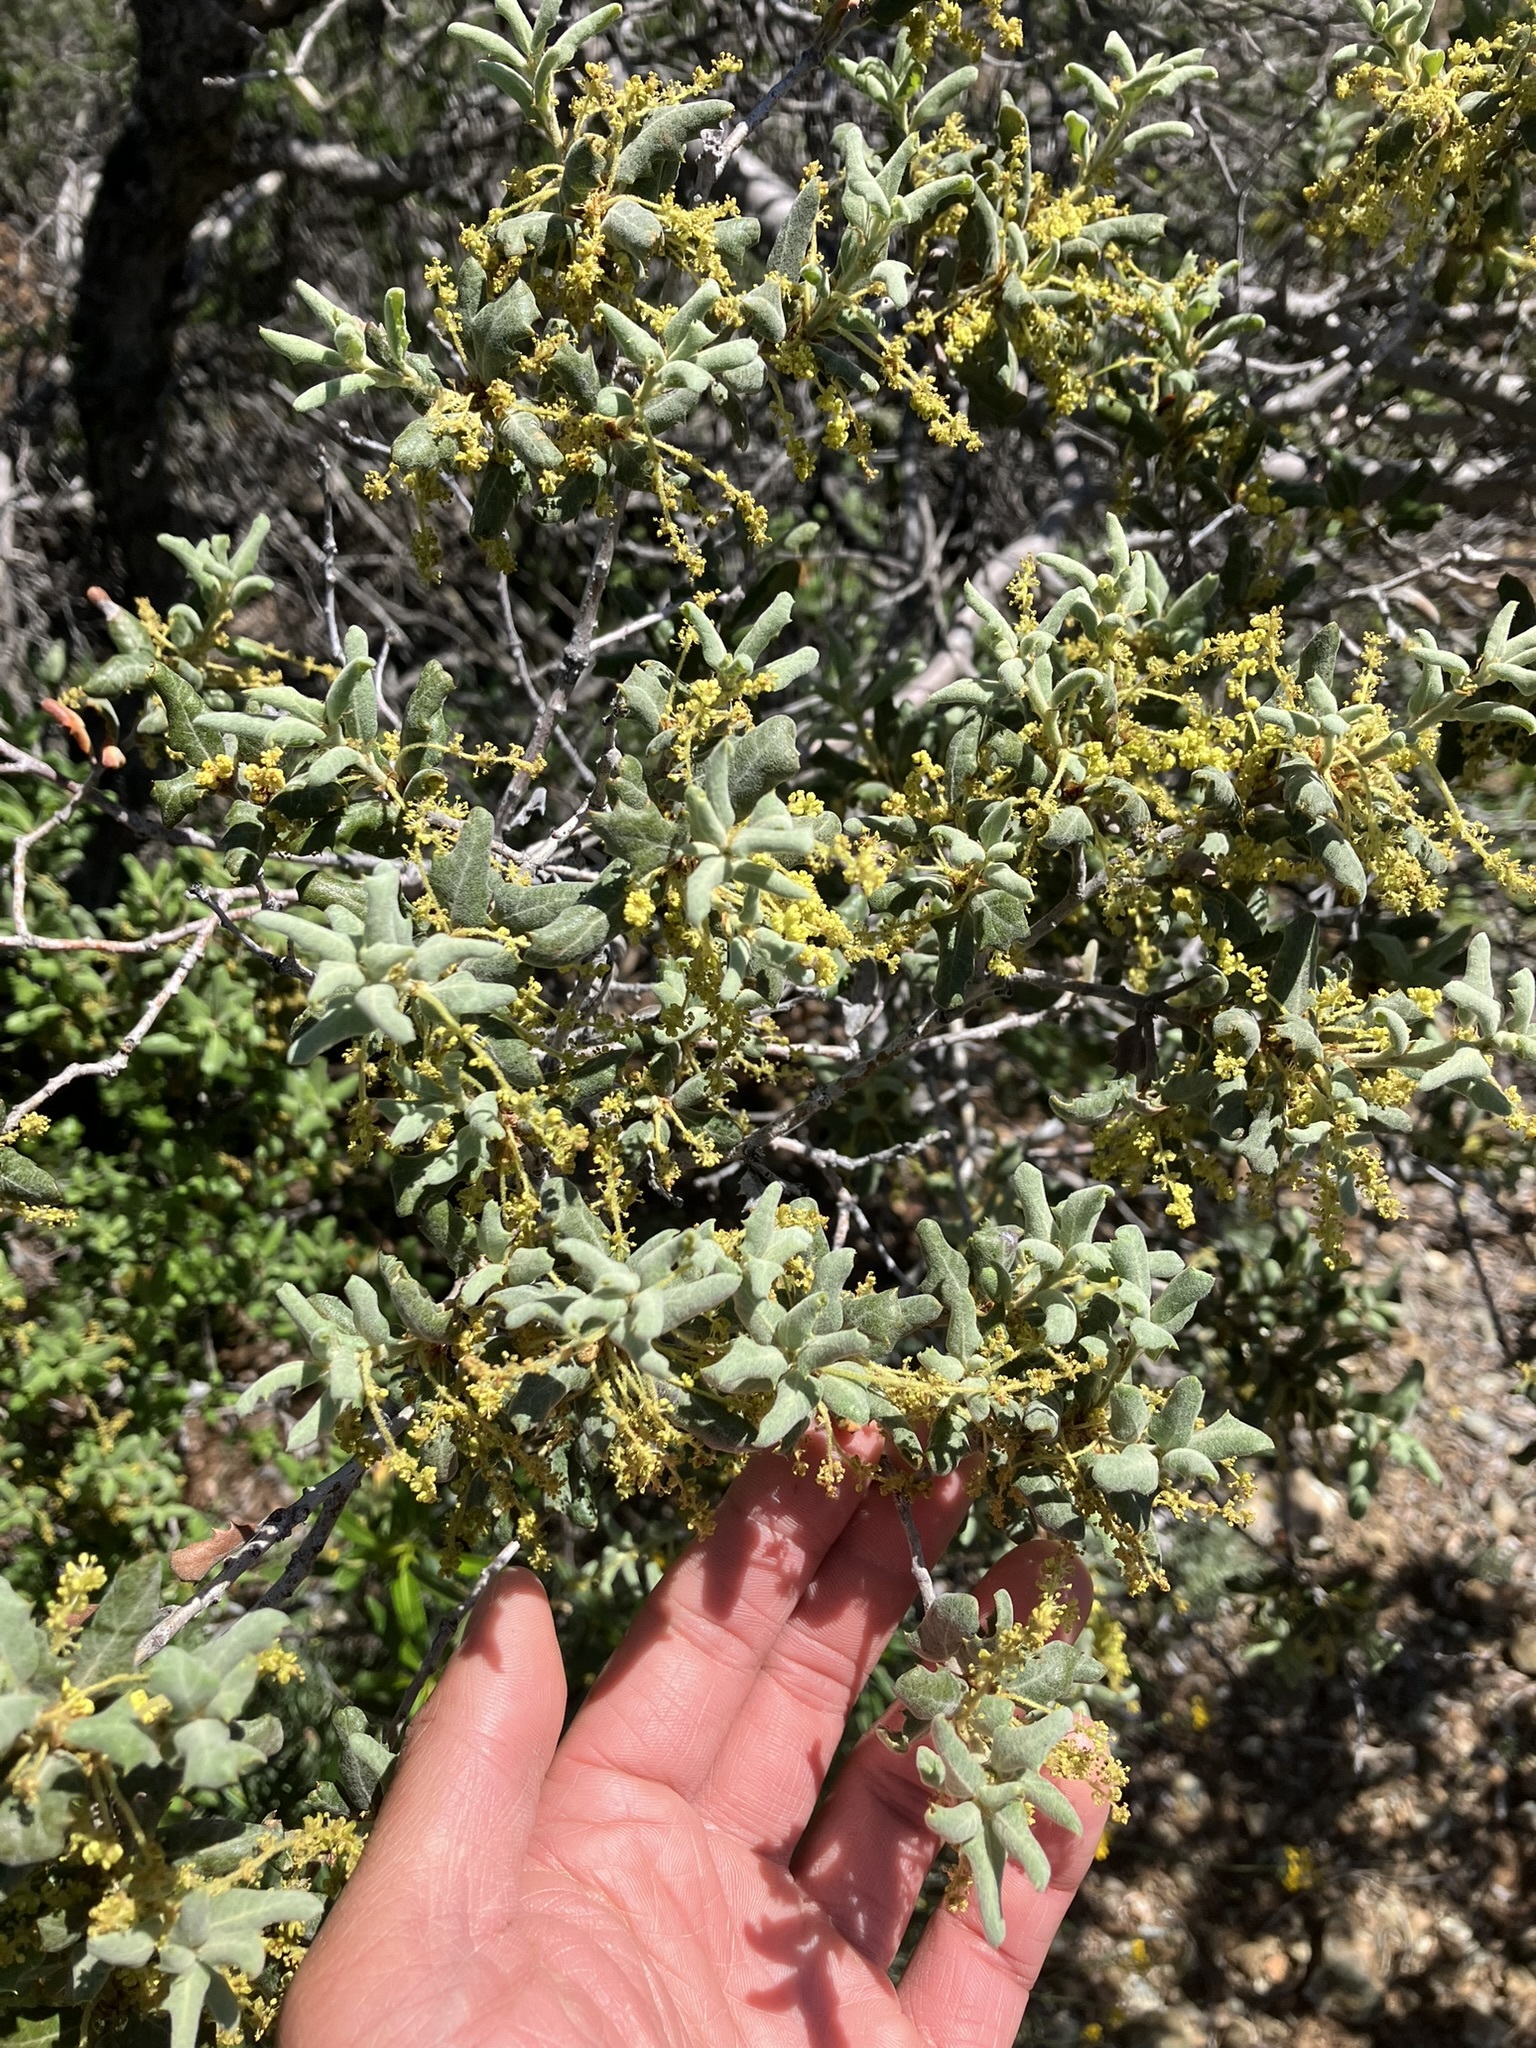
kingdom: Plantae
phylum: Tracheophyta
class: Magnoliopsida
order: Fagales
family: Fagaceae
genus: Quercus
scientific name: Quercus durata
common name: Leather oak
